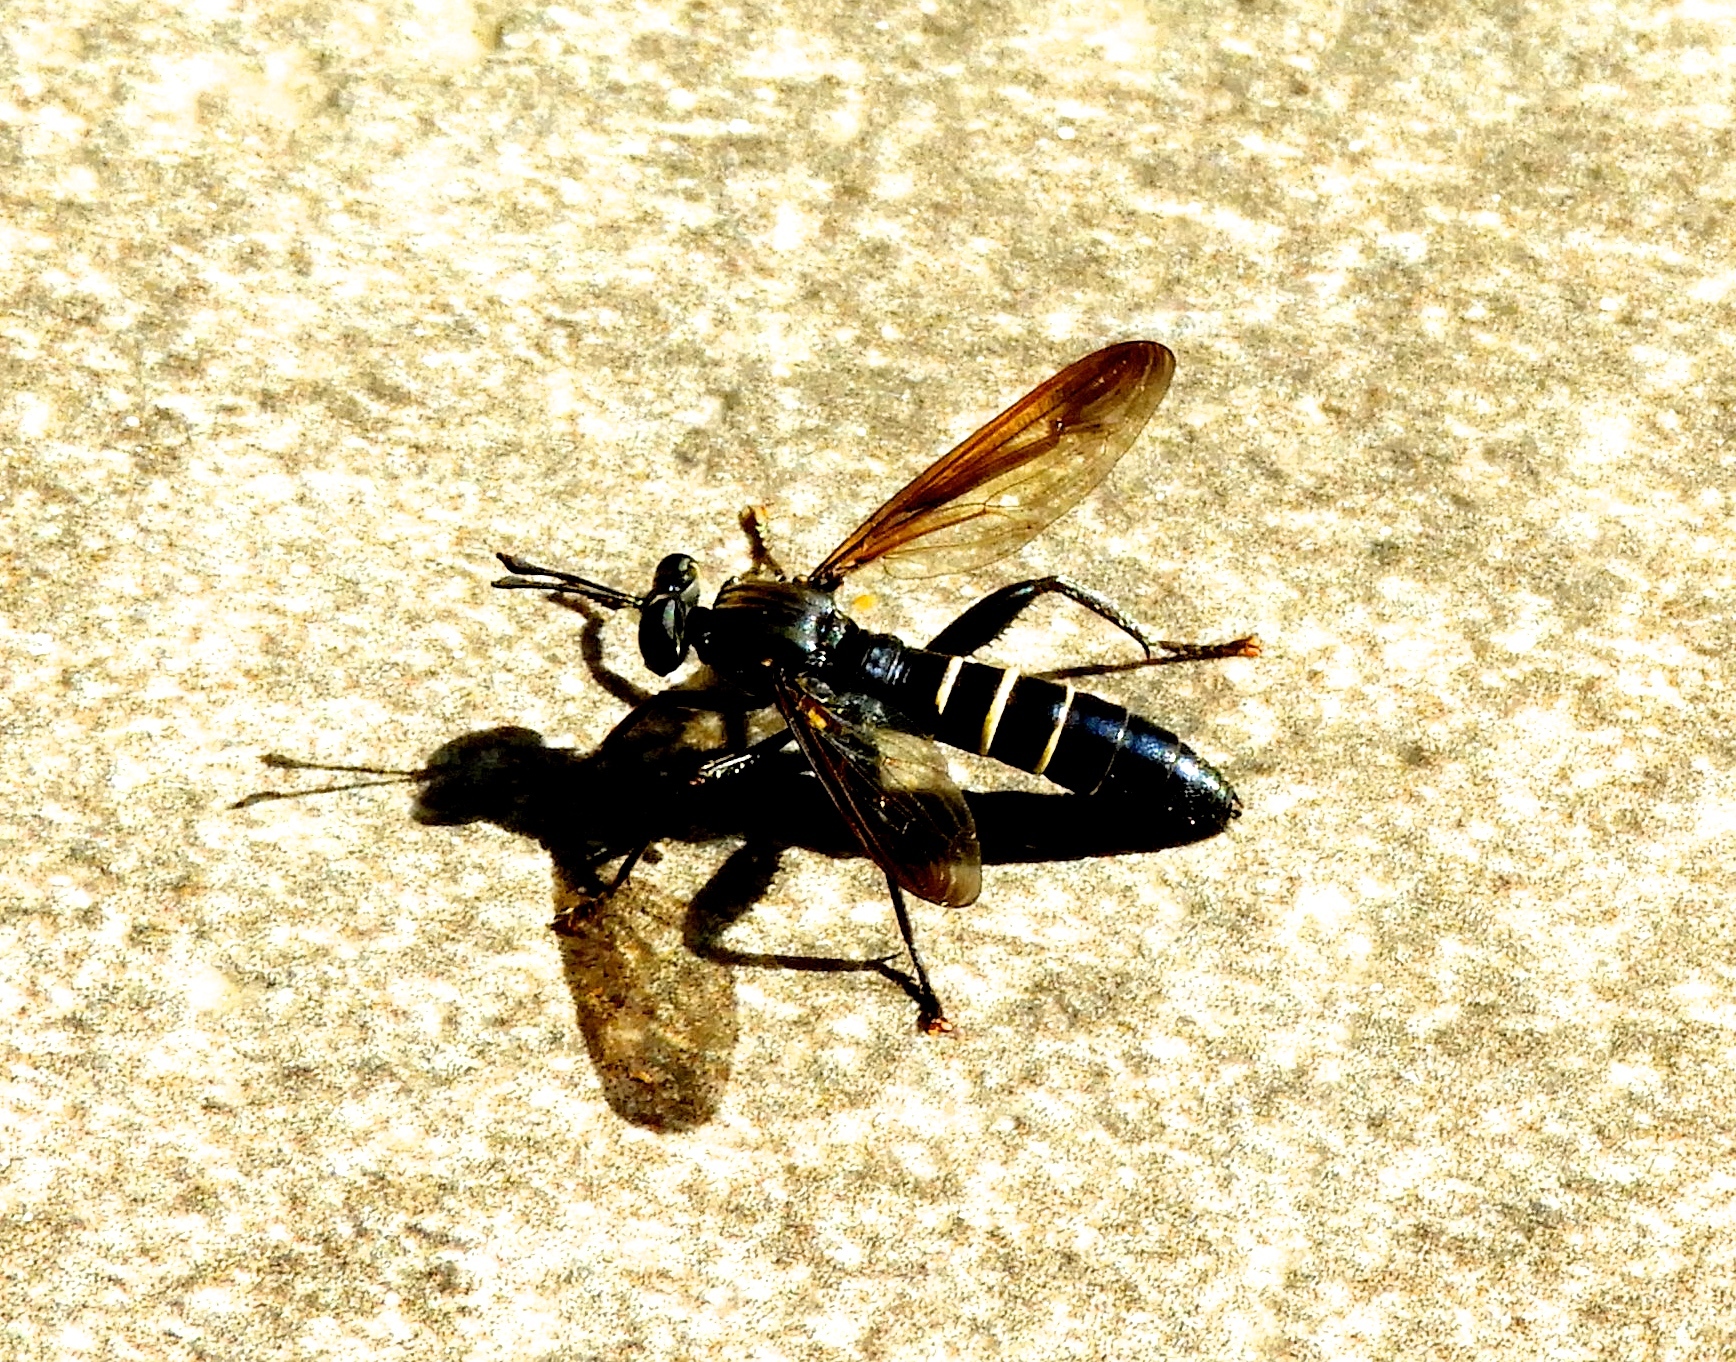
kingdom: Animalia
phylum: Arthropoda
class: Insecta
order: Diptera
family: Mydidae
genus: Mydas
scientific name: Mydas
